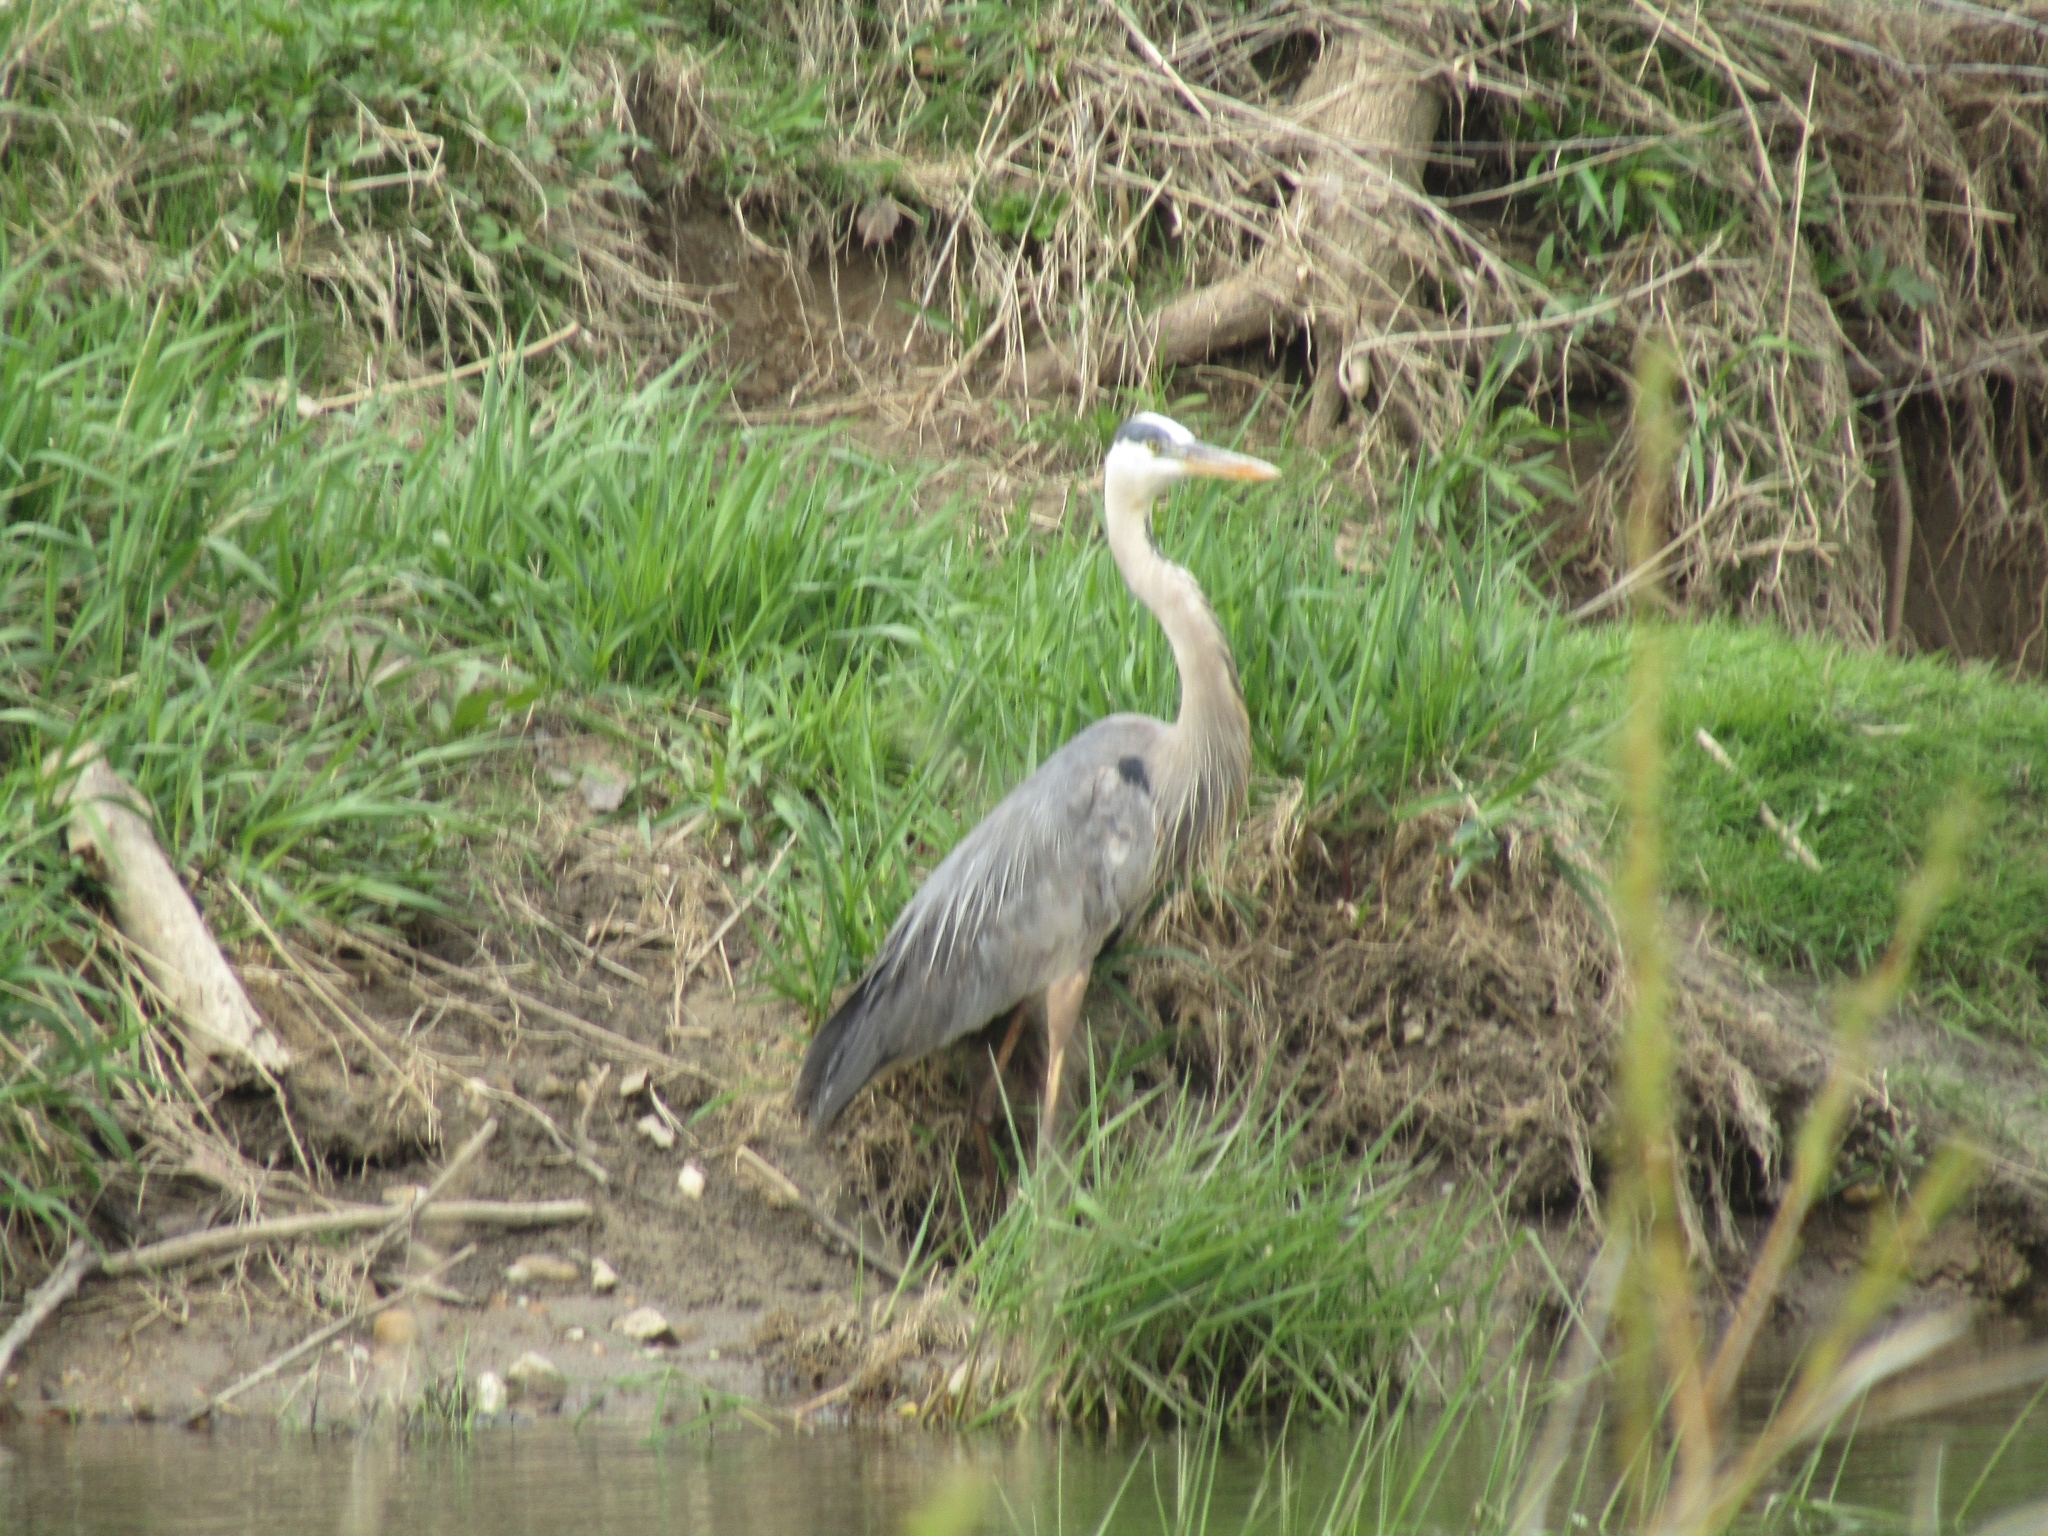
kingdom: Animalia
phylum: Chordata
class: Aves
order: Pelecaniformes
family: Ardeidae
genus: Ardea
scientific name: Ardea herodias
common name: Great blue heron
